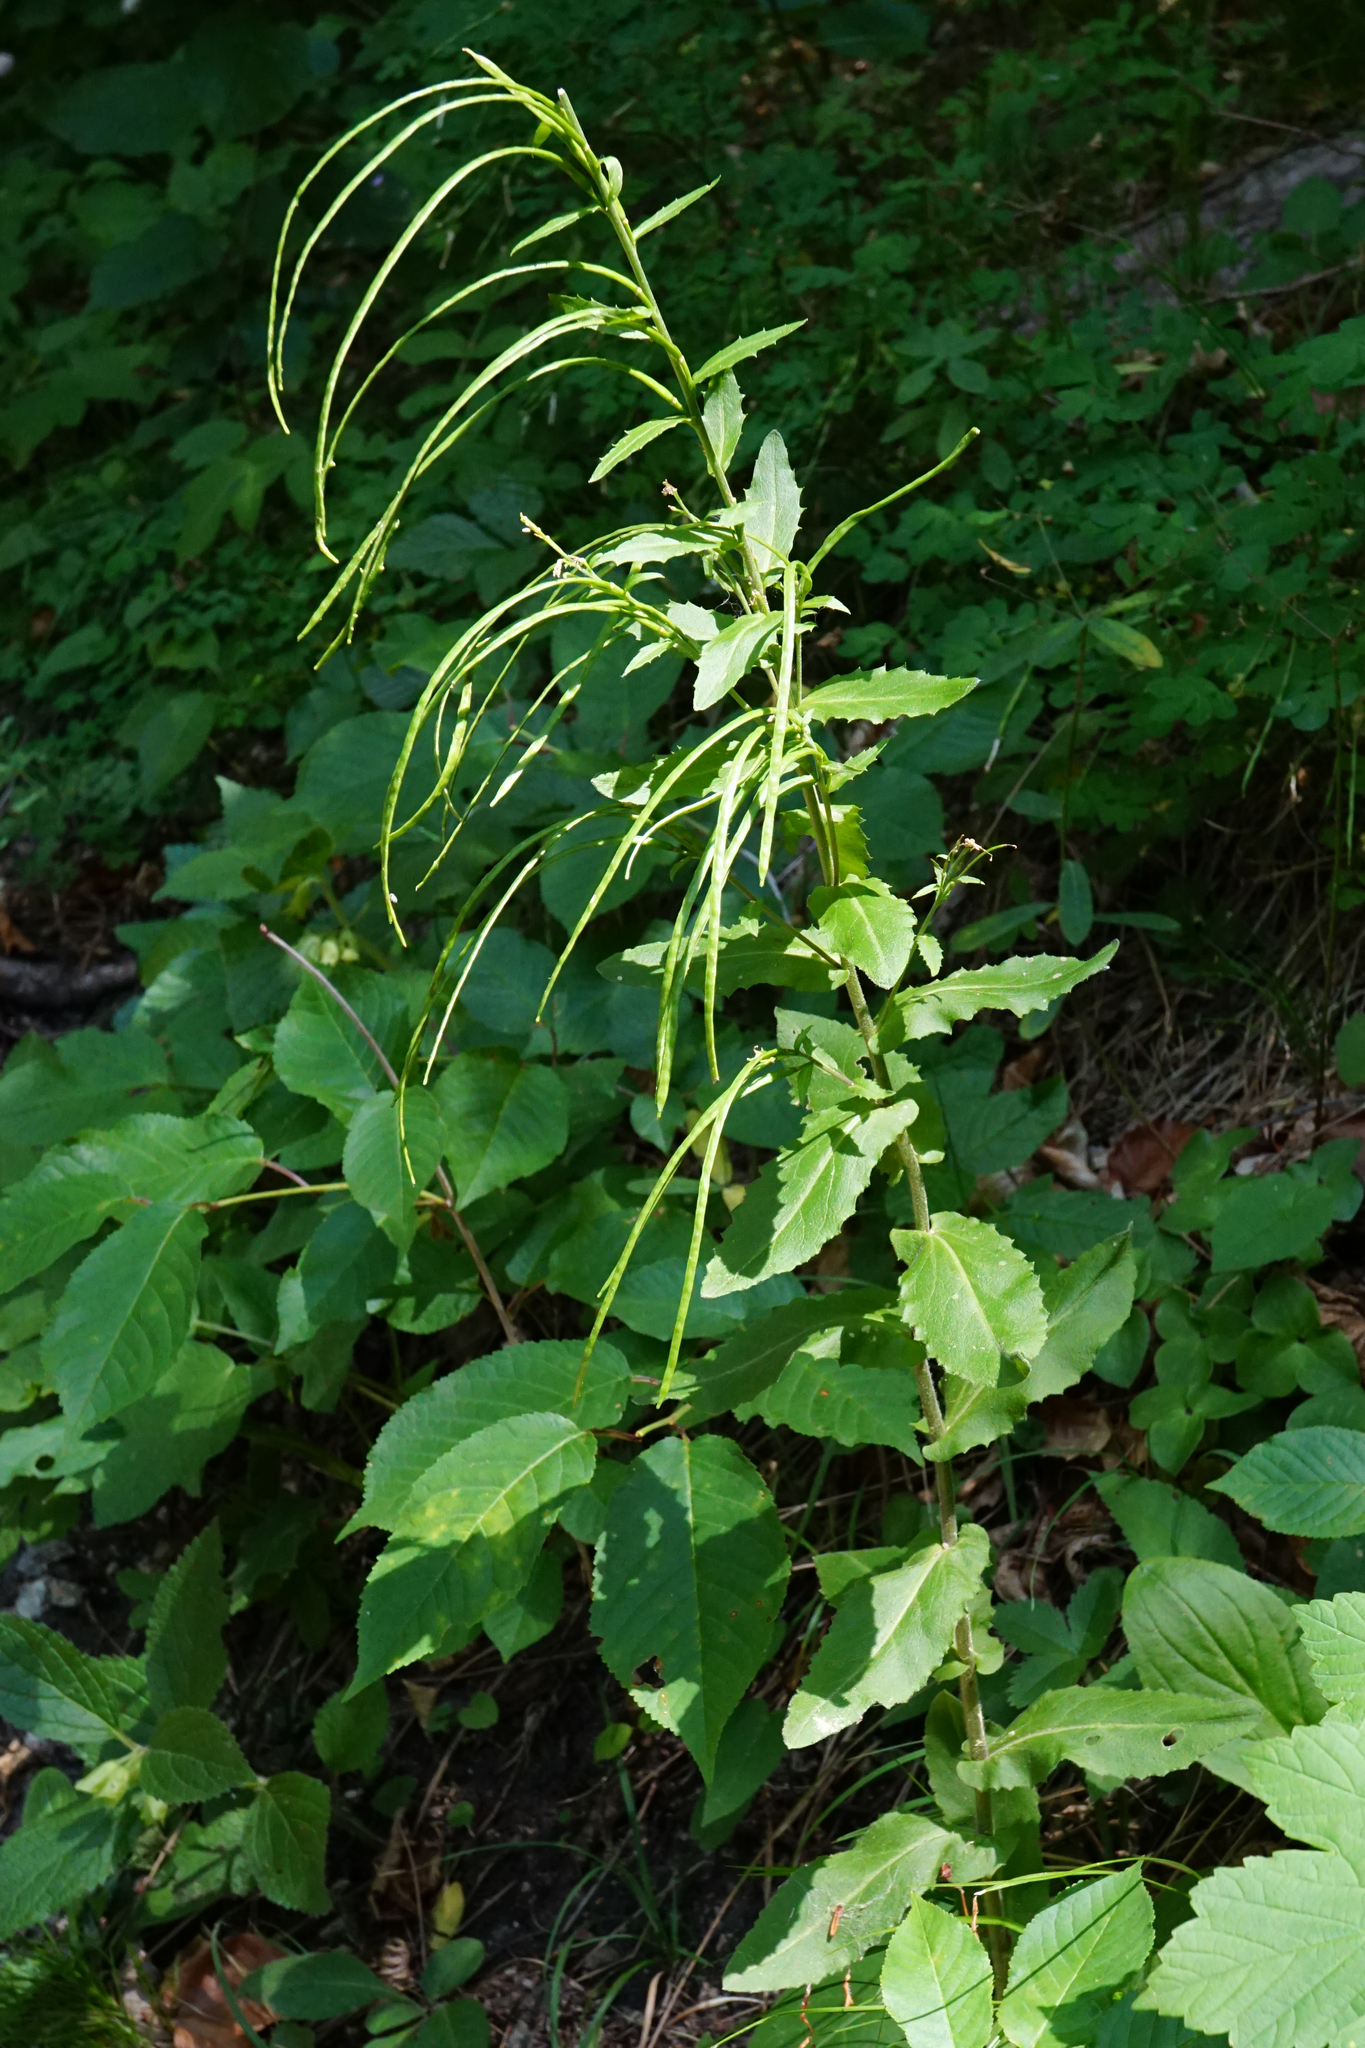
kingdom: Plantae
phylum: Tracheophyta
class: Magnoliopsida
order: Brassicales
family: Brassicaceae
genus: Pseudoturritis
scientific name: Pseudoturritis turrita
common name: Tower cress
